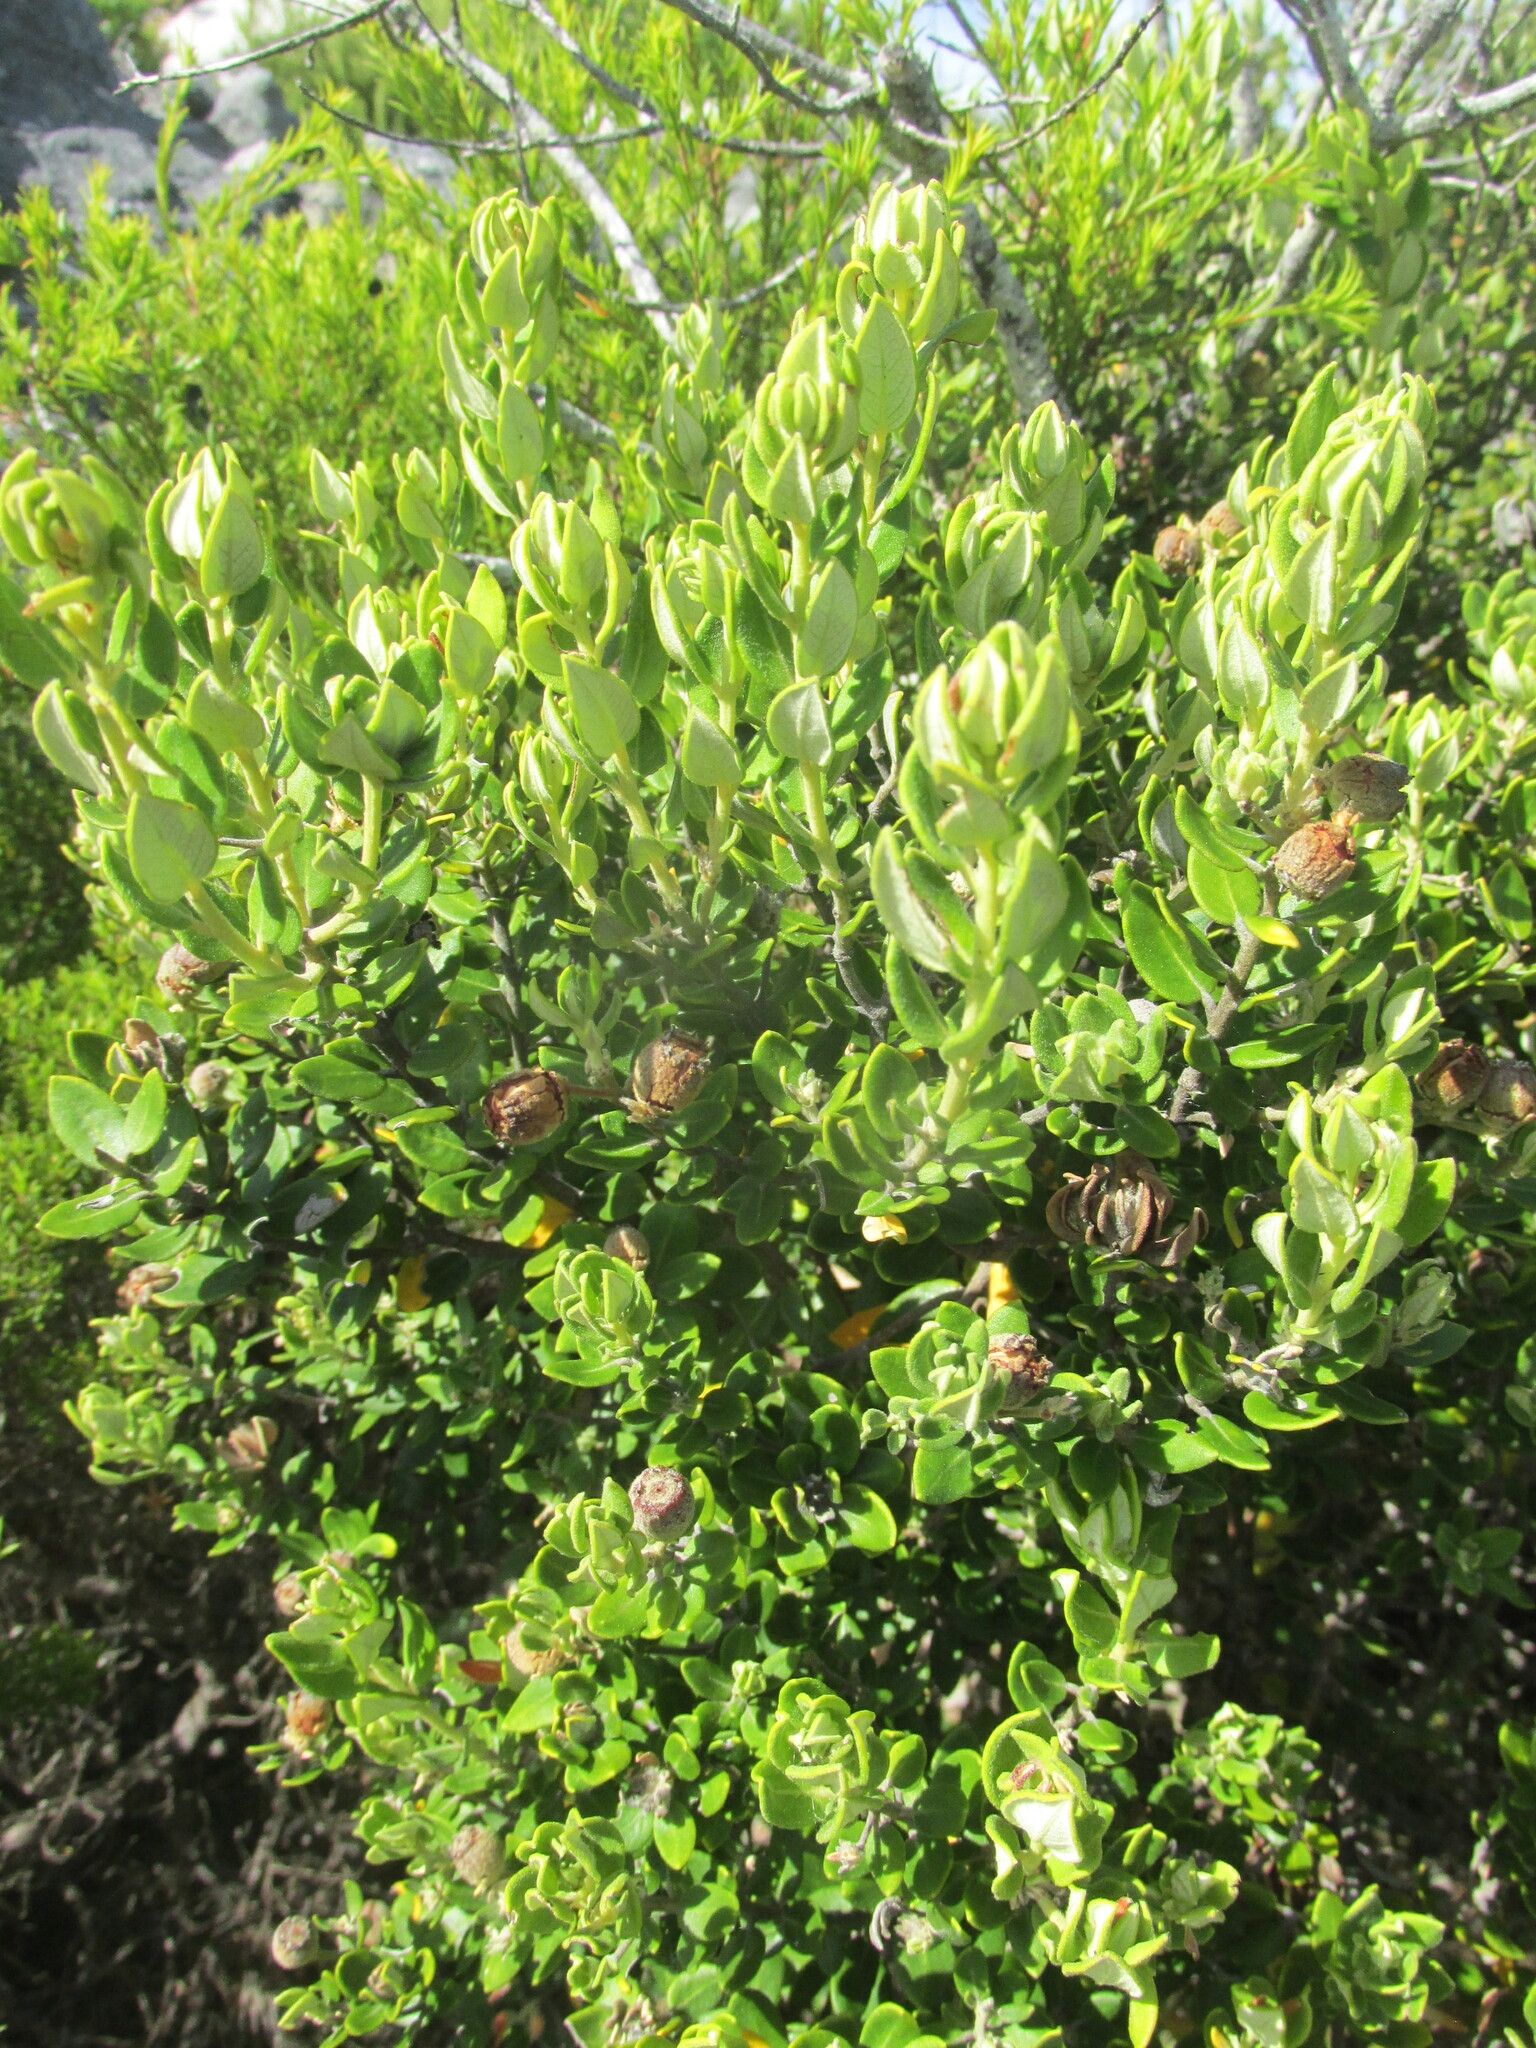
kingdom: Plantae
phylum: Tracheophyta
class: Magnoliopsida
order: Rosales
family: Rhamnaceae
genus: Phylica
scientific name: Phylica buxifolia
